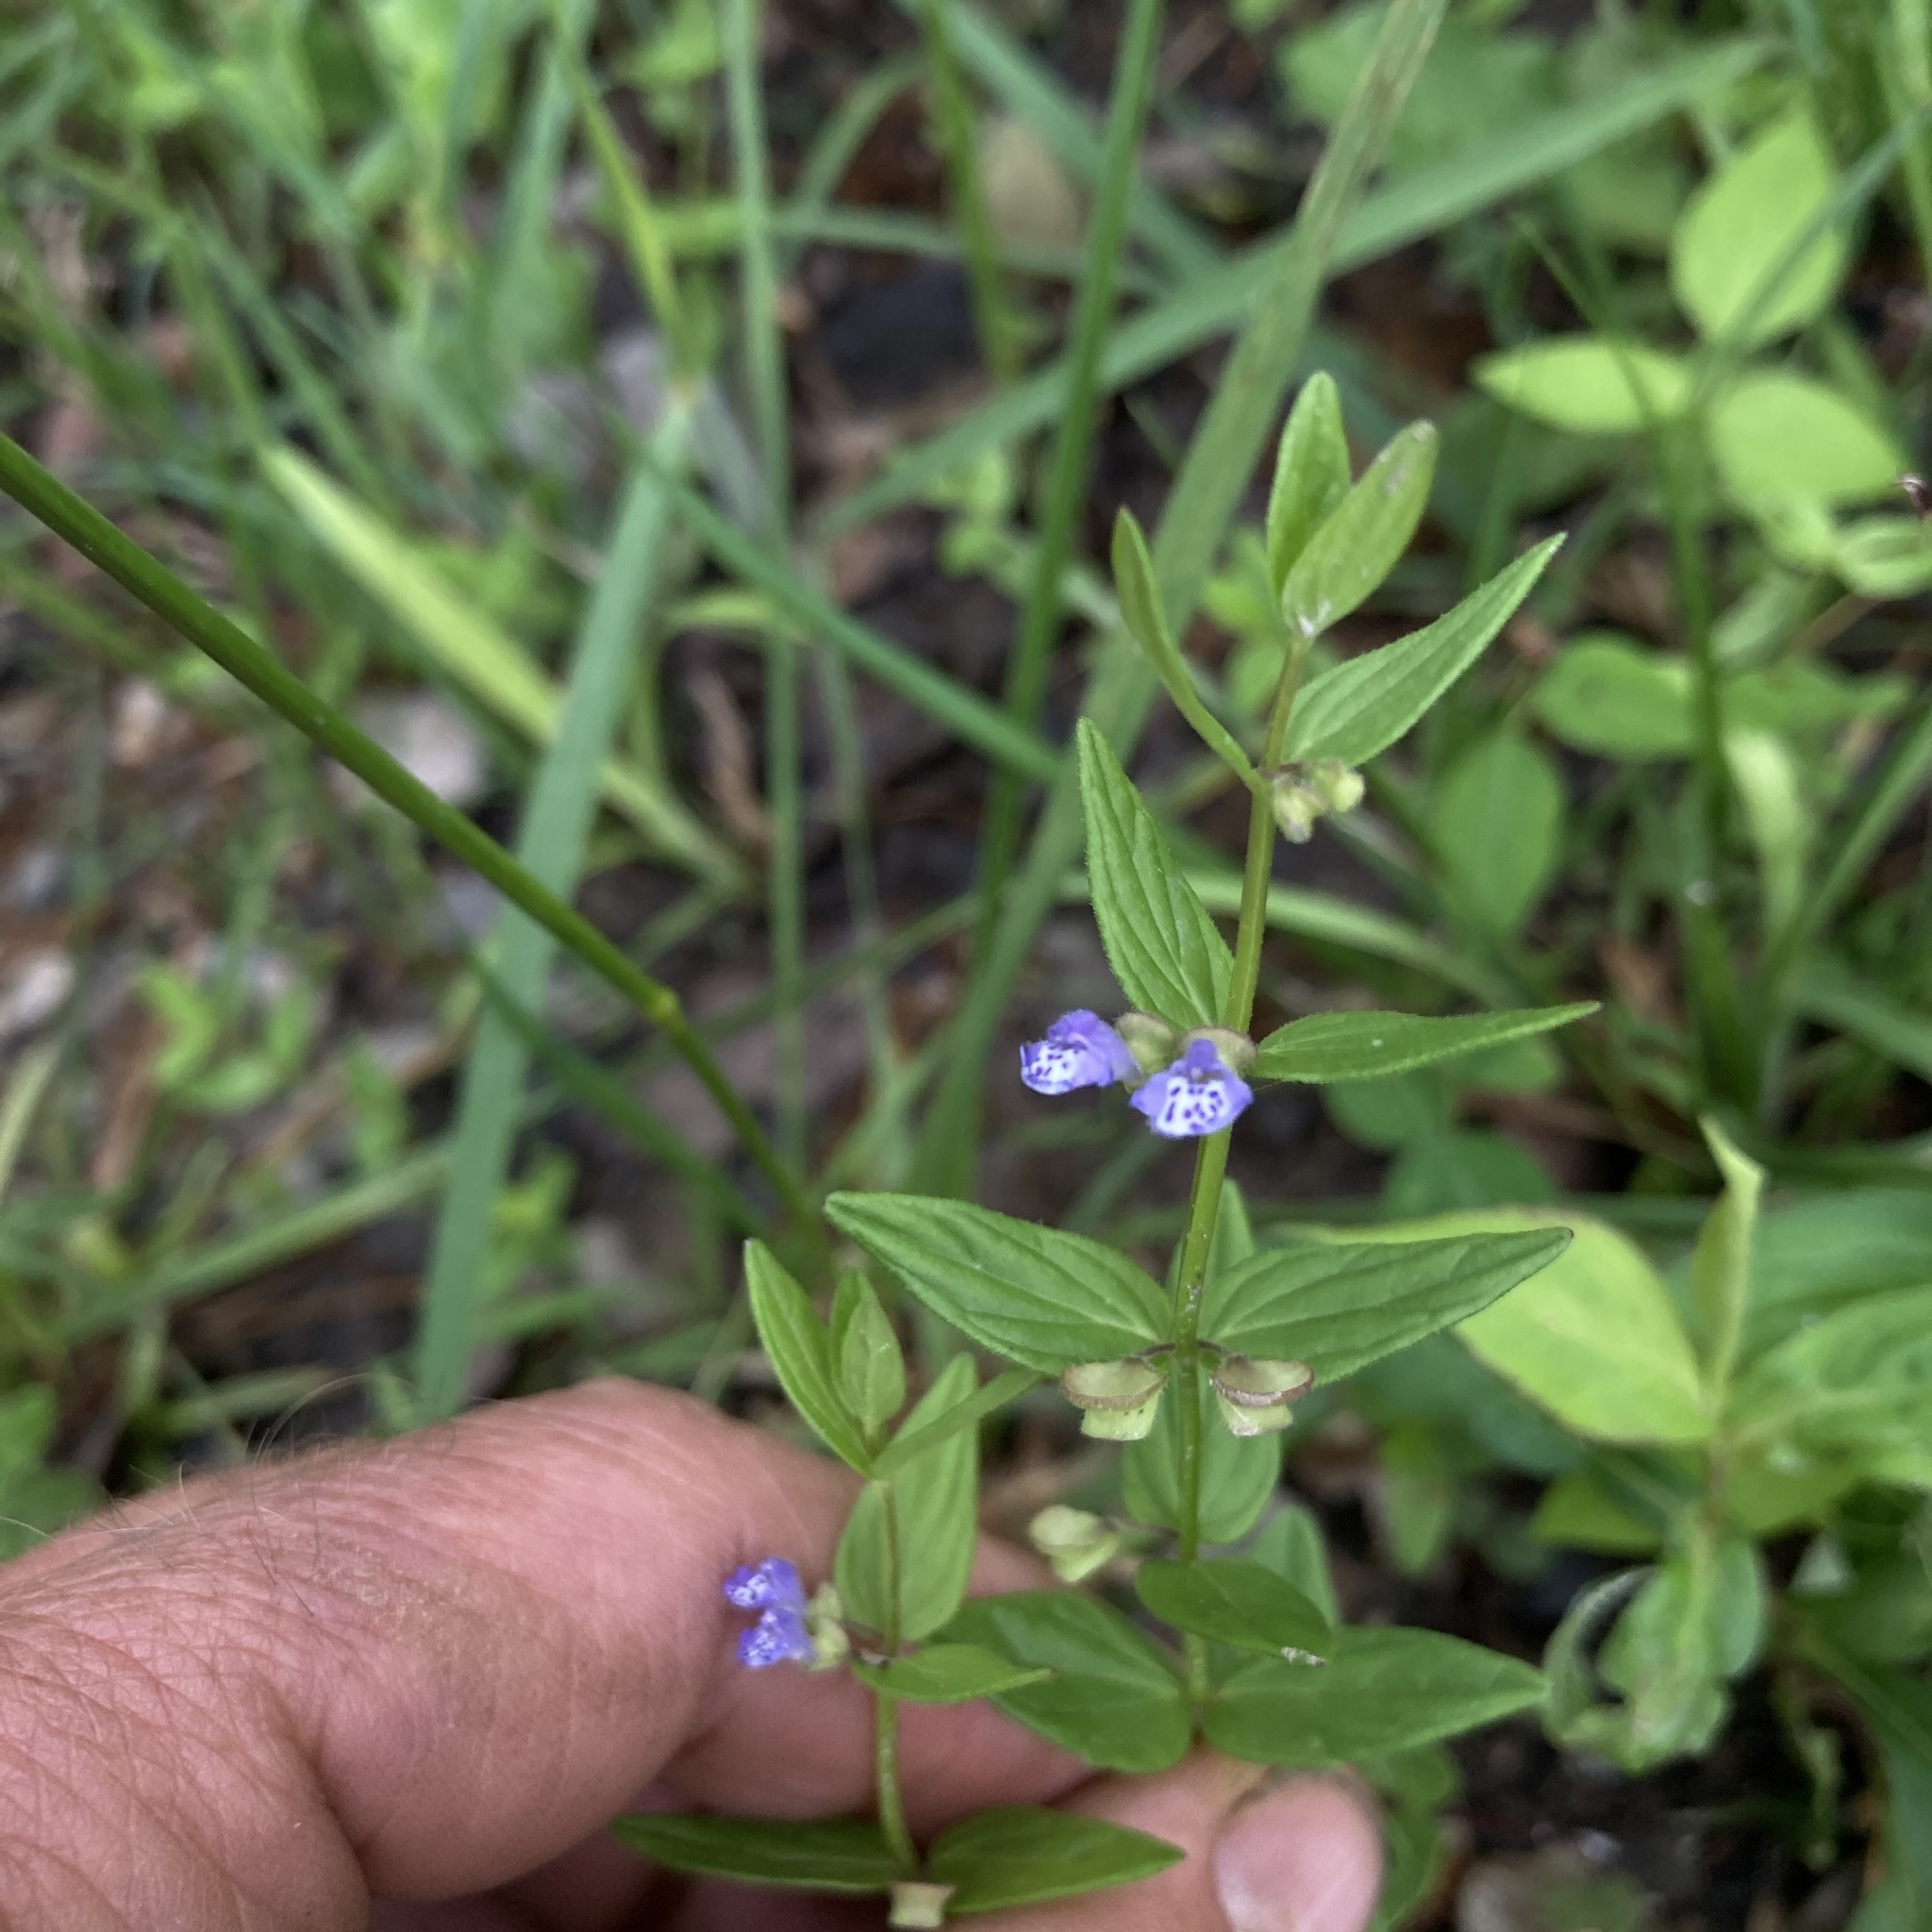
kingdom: Plantae
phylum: Tracheophyta
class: Magnoliopsida
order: Lamiales
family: Lamiaceae
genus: Scutellaria
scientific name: Scutellaria parvula
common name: Little scullcap
